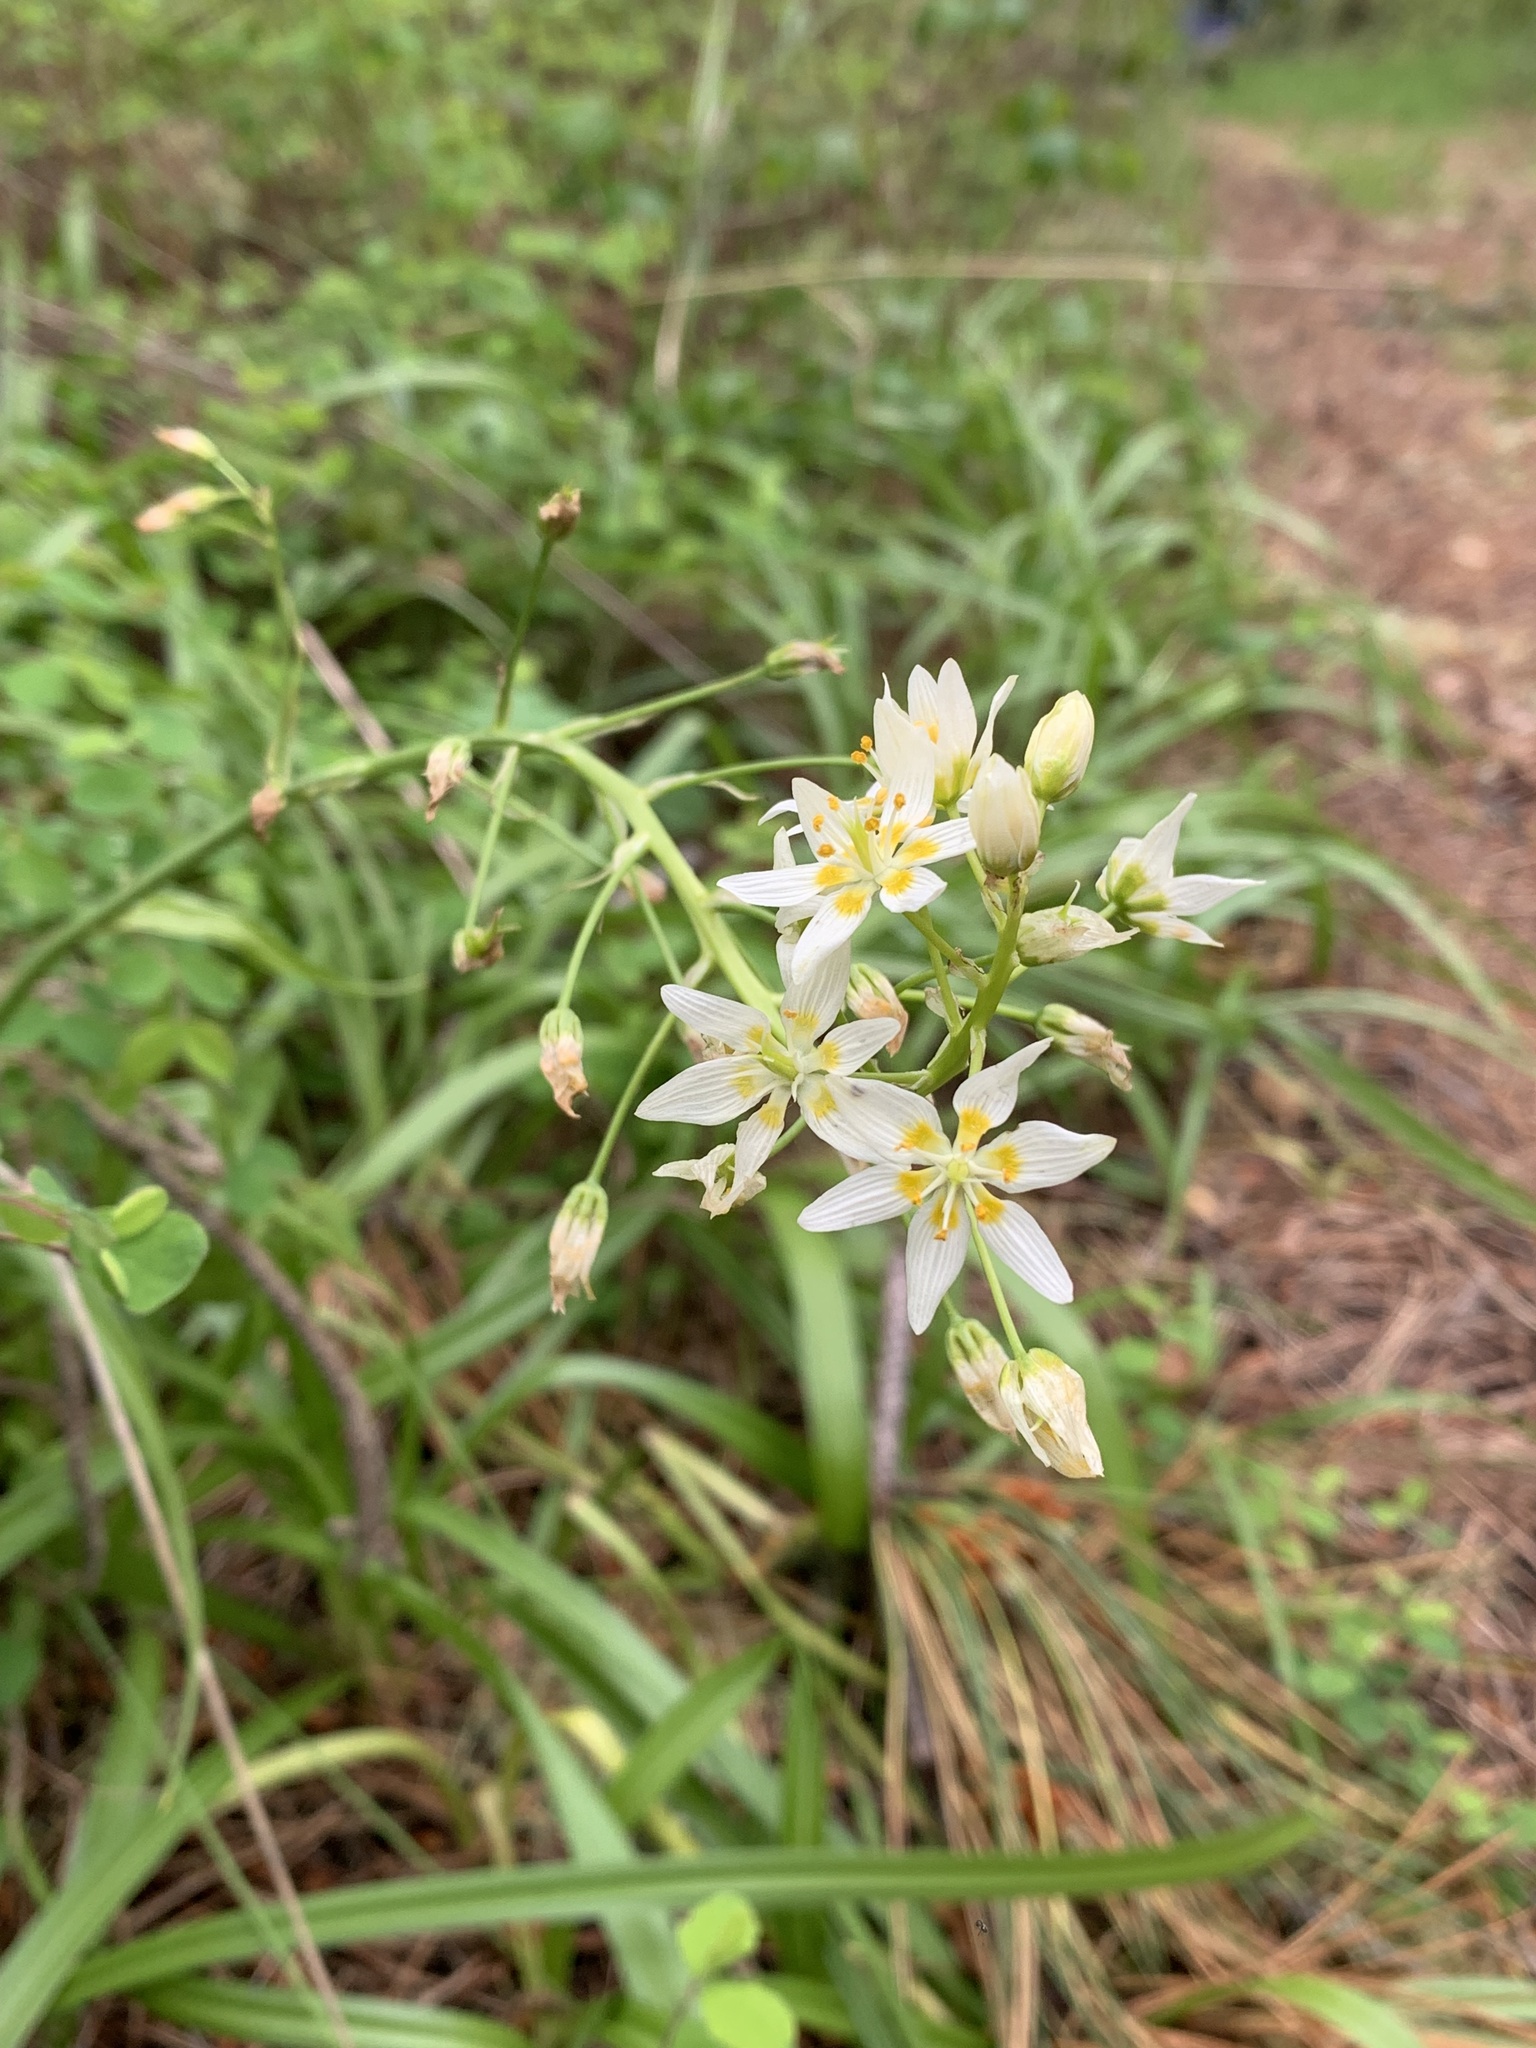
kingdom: Plantae
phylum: Tracheophyta
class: Liliopsida
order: Liliales
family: Melanthiaceae
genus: Toxicoscordion
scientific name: Toxicoscordion fremontii
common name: Fremont's death camas
